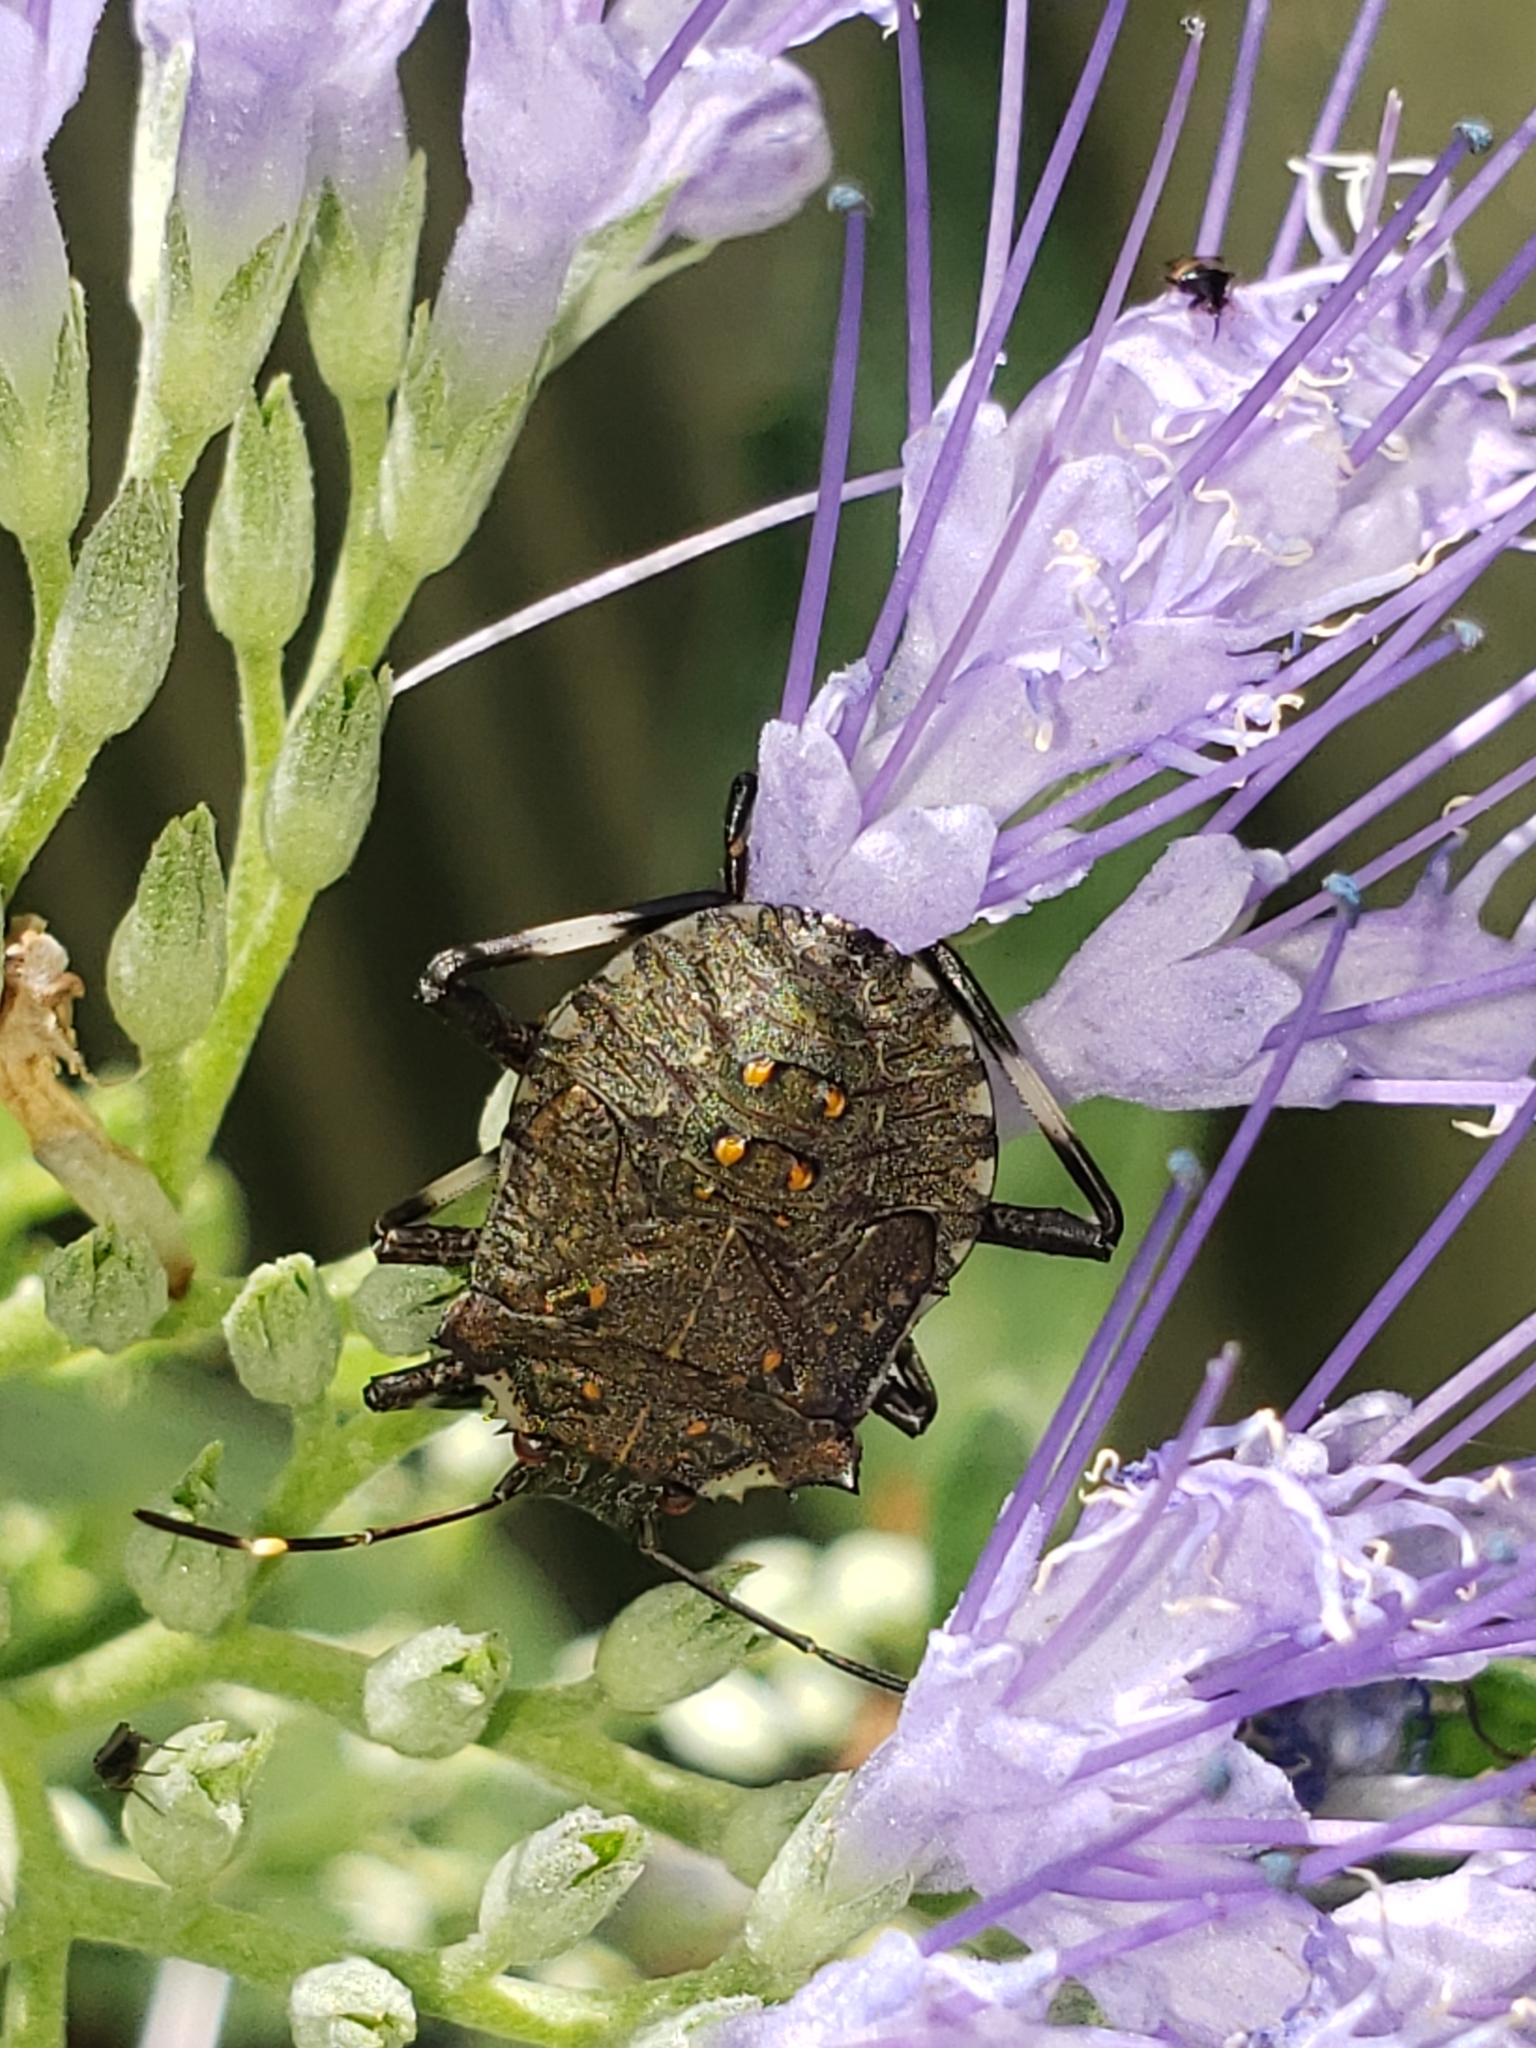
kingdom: Animalia
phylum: Arthropoda
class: Insecta
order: Hemiptera
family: Pentatomidae
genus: Halyomorpha
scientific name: Halyomorpha halys
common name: Brown marmorated stink bug
